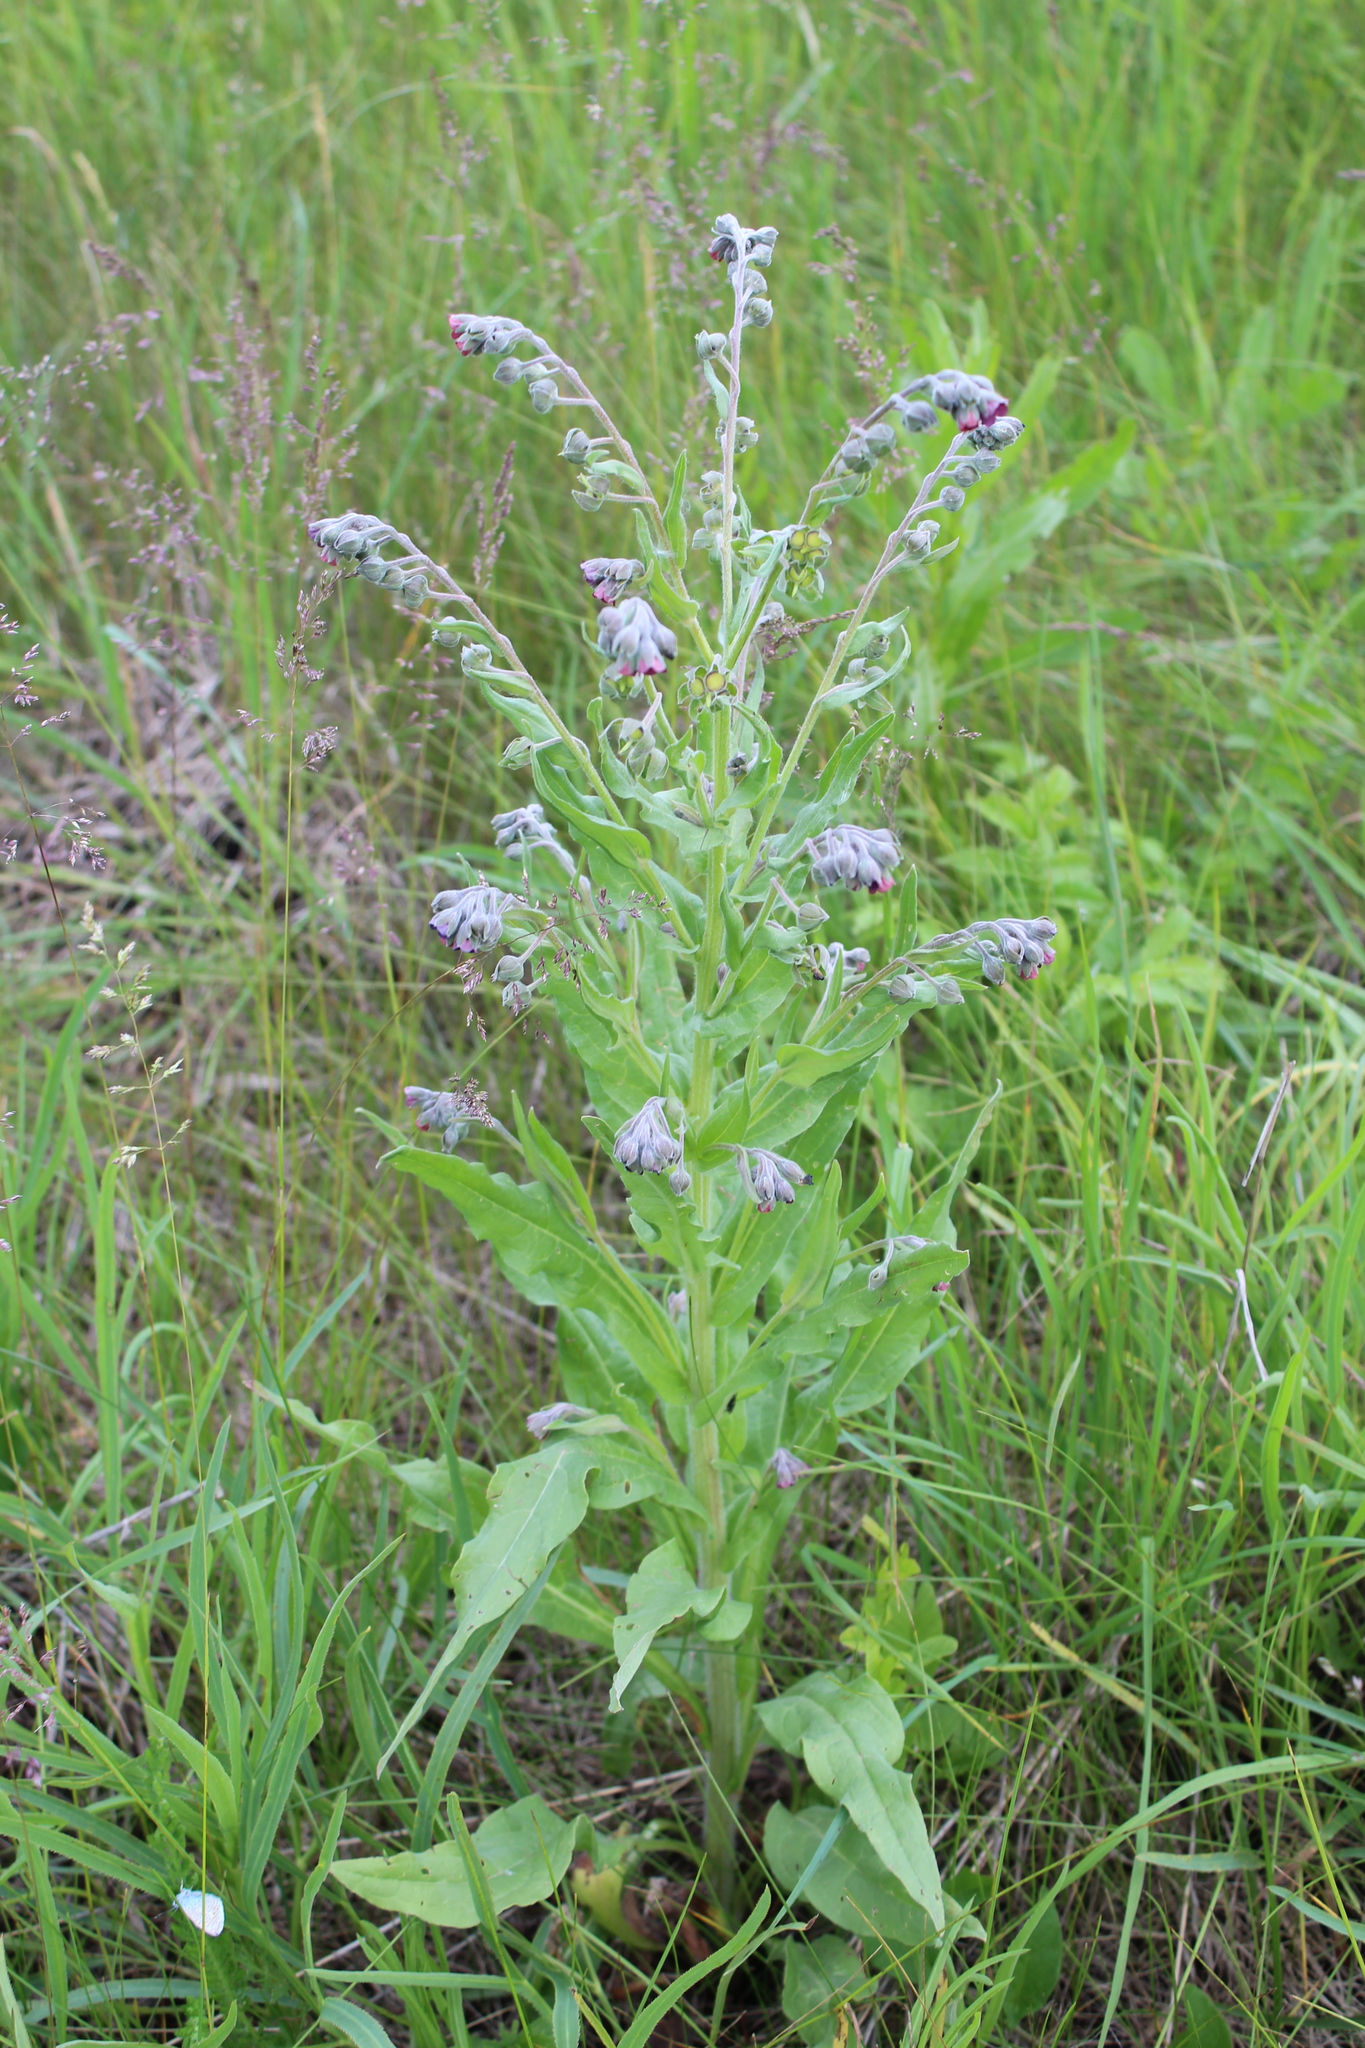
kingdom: Plantae
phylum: Tracheophyta
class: Magnoliopsida
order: Boraginales
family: Boraginaceae
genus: Cynoglossum
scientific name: Cynoglossum officinale
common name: Hound's-tongue
